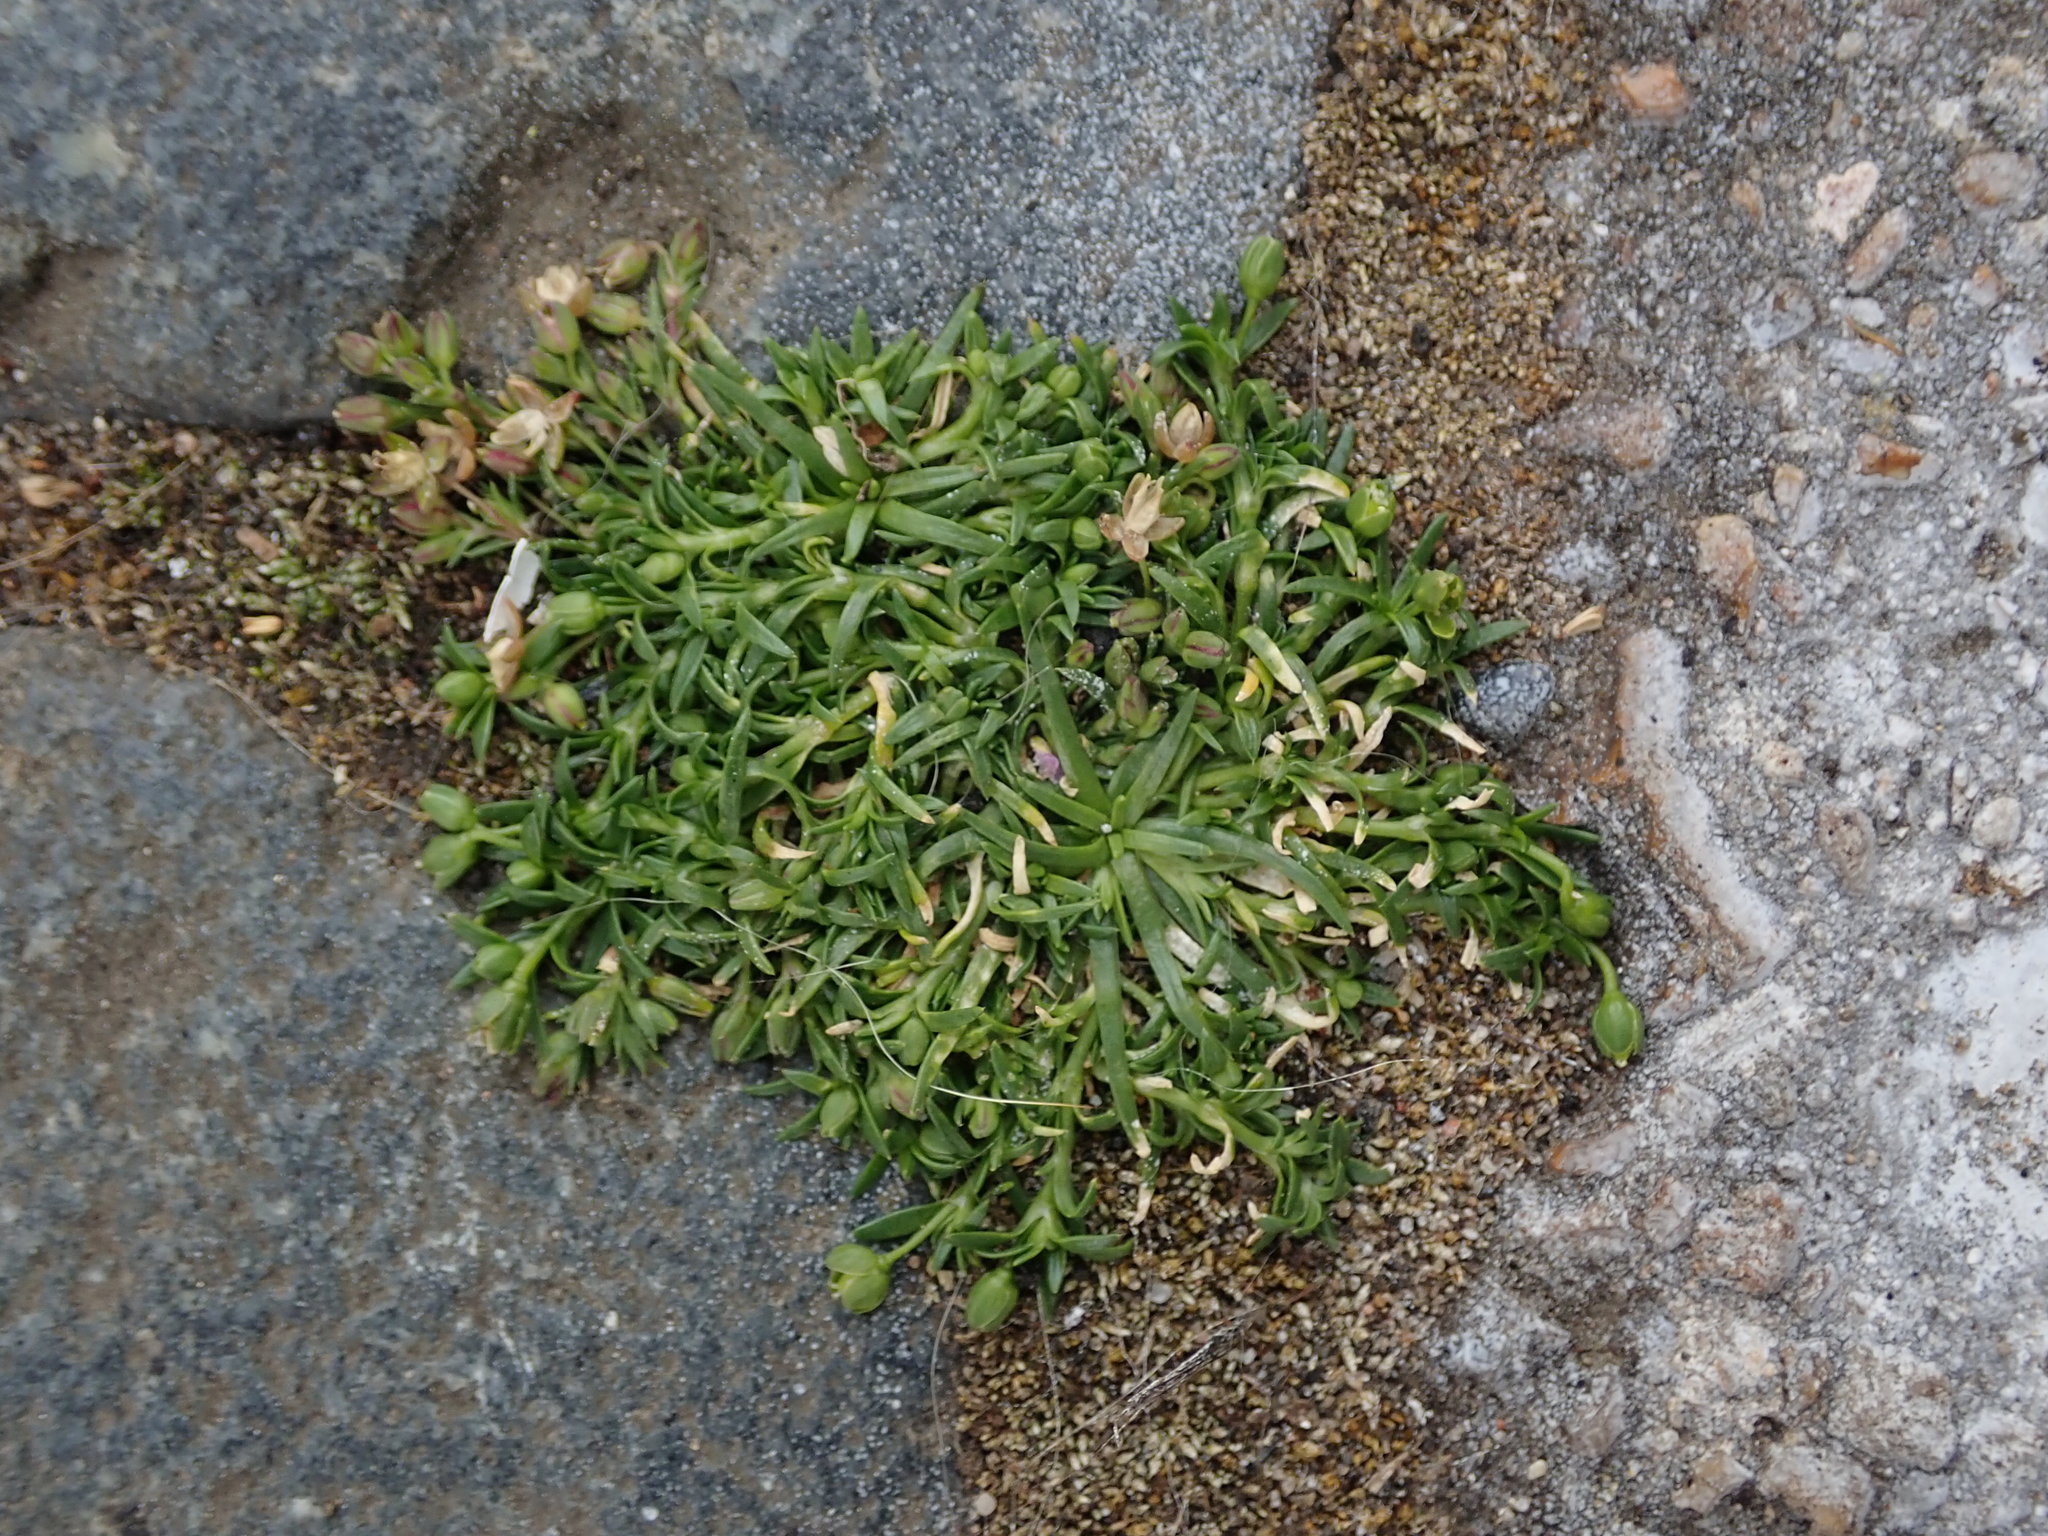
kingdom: Plantae
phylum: Tracheophyta
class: Magnoliopsida
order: Caryophyllales
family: Caryophyllaceae
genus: Sagina
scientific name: Sagina procumbens
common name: Procumbent pearlwort
